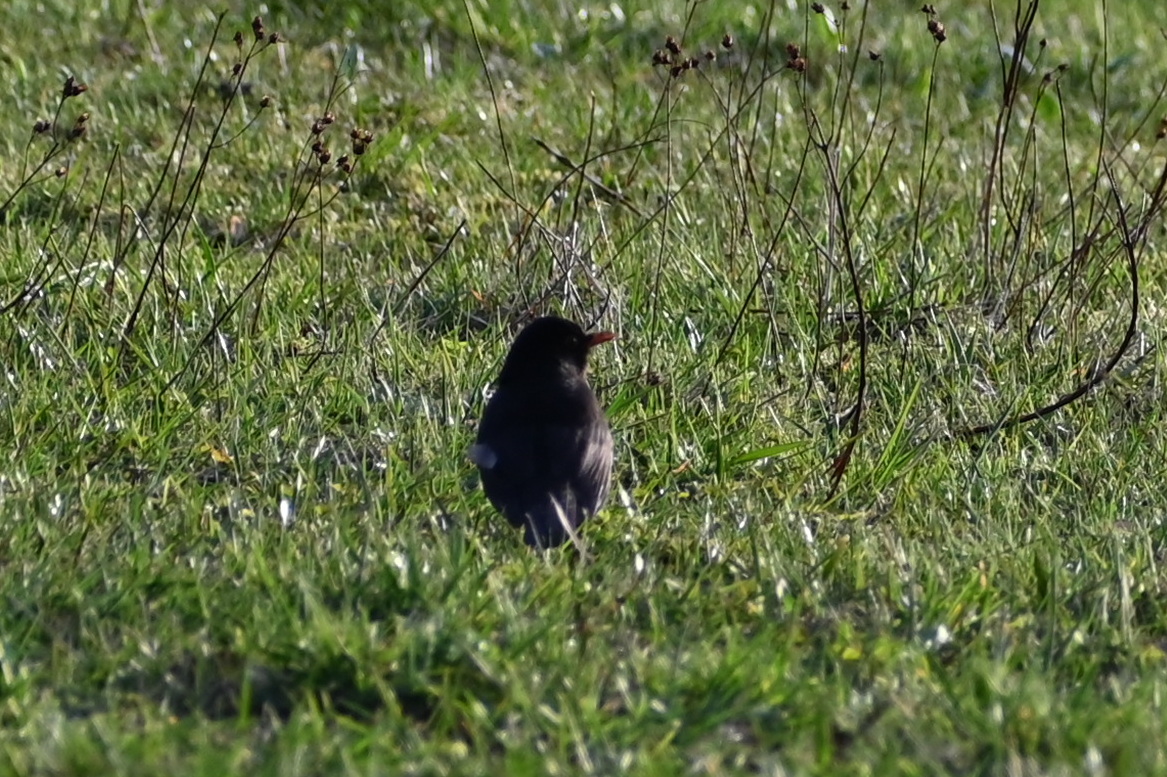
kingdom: Animalia
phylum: Chordata
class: Aves
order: Passeriformes
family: Turdidae
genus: Turdus
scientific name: Turdus merula
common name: Common blackbird
